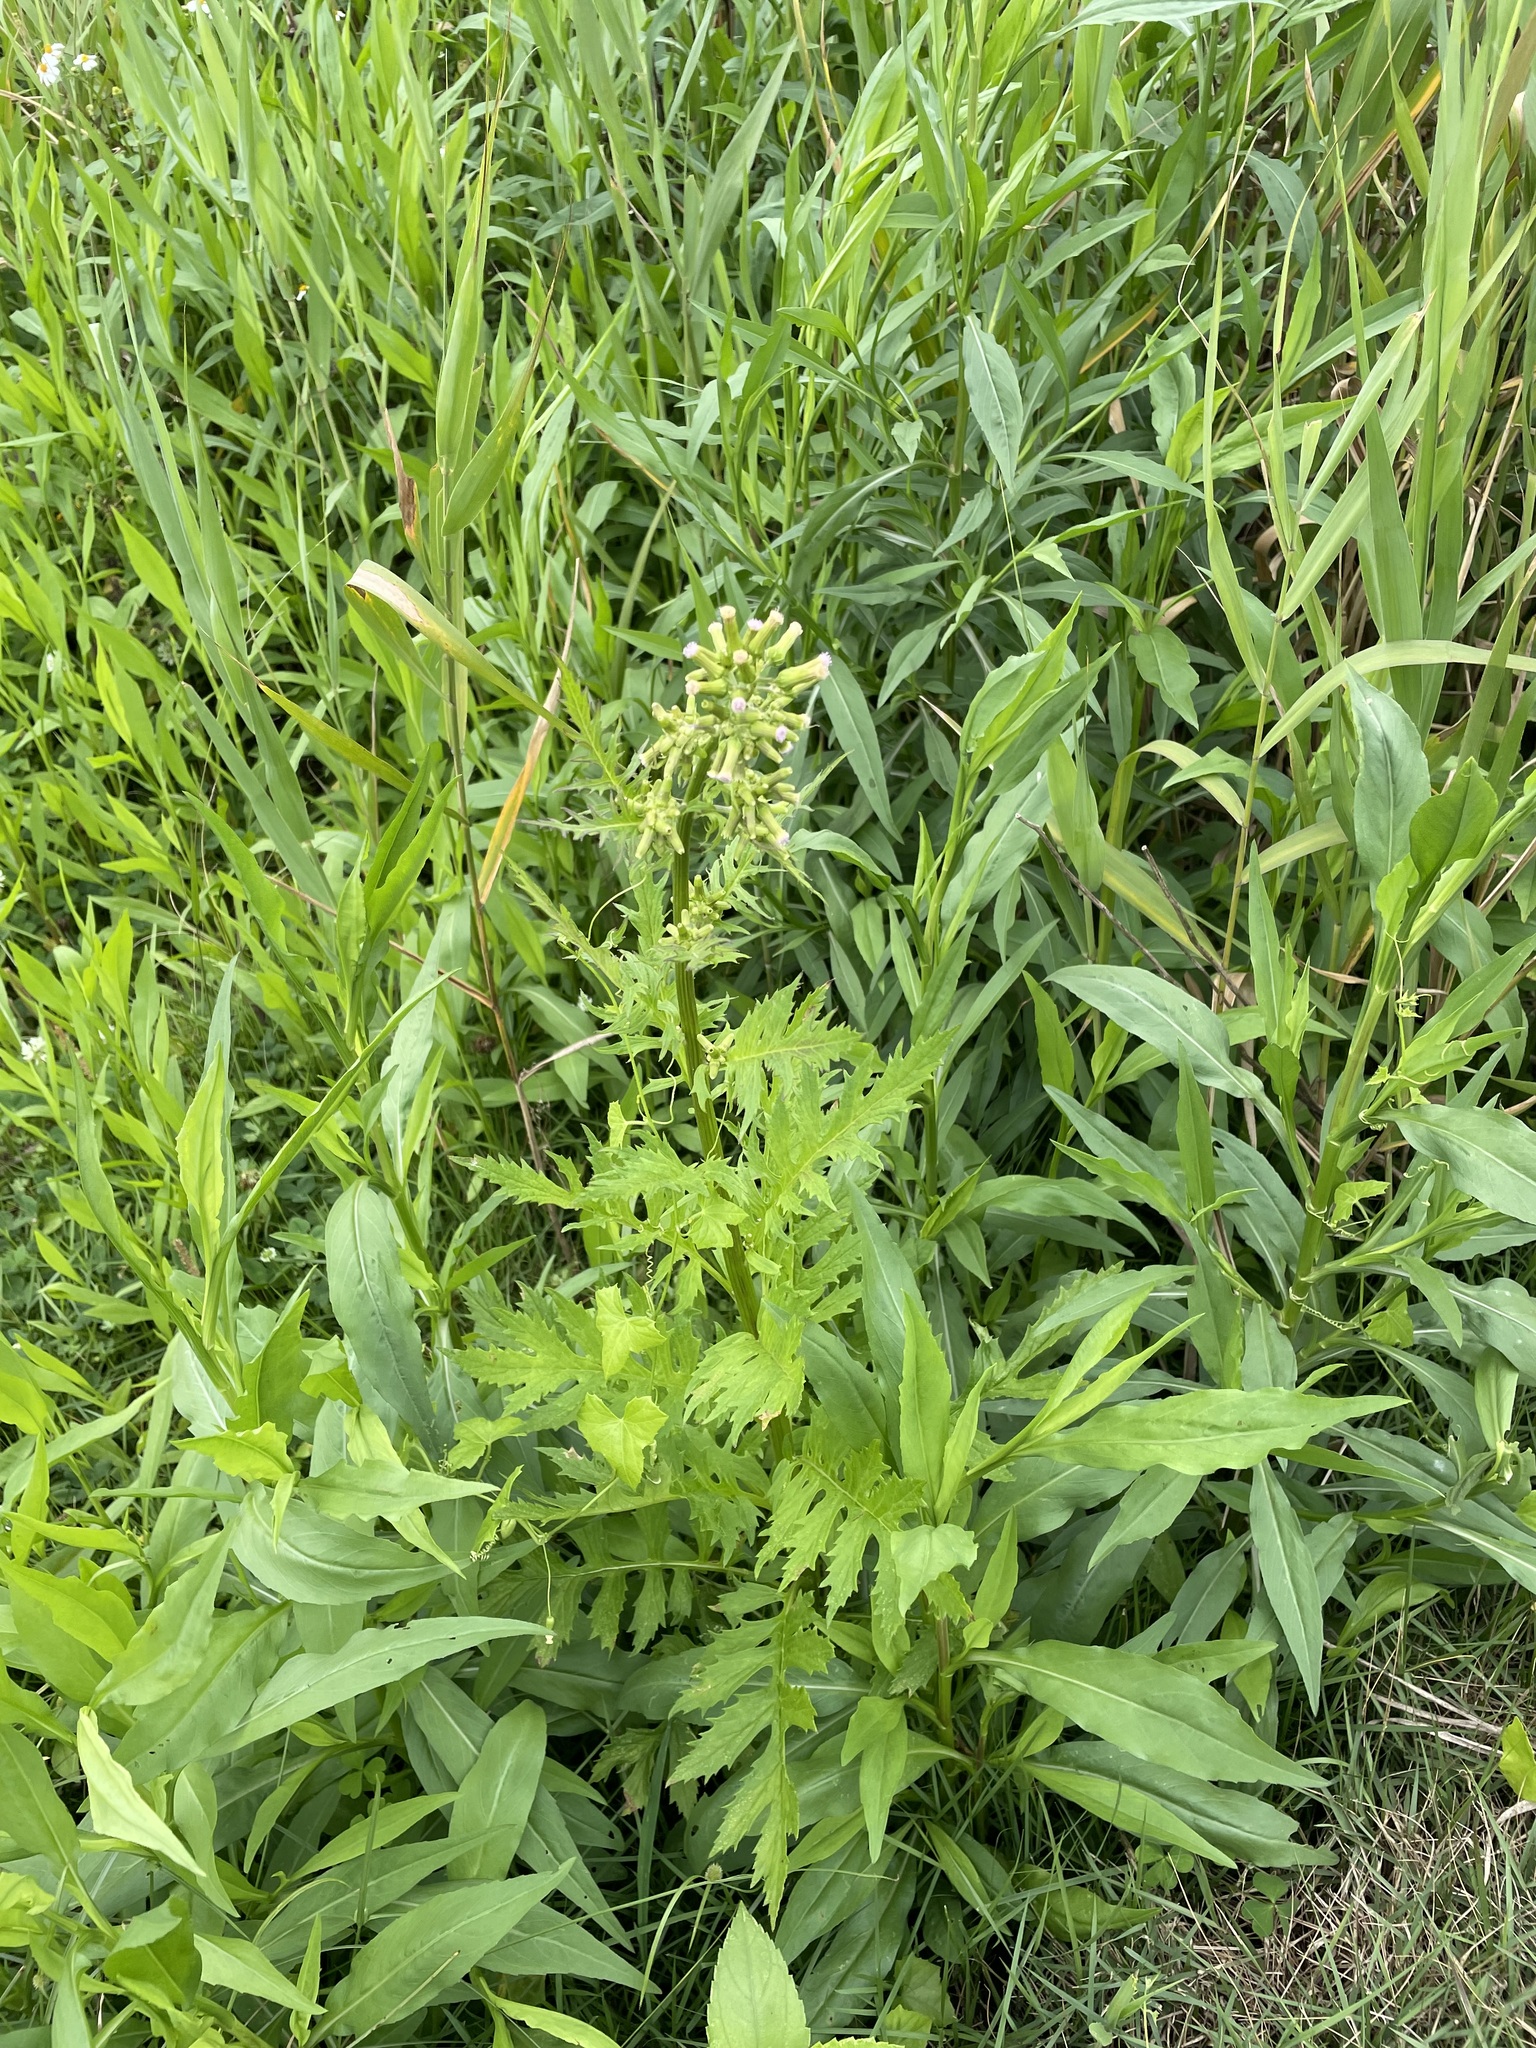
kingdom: Plantae
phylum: Tracheophyta
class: Magnoliopsida
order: Asterales
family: Asteraceae
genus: Erechtites
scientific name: Erechtites valerianifolius
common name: Tropical burnweed
